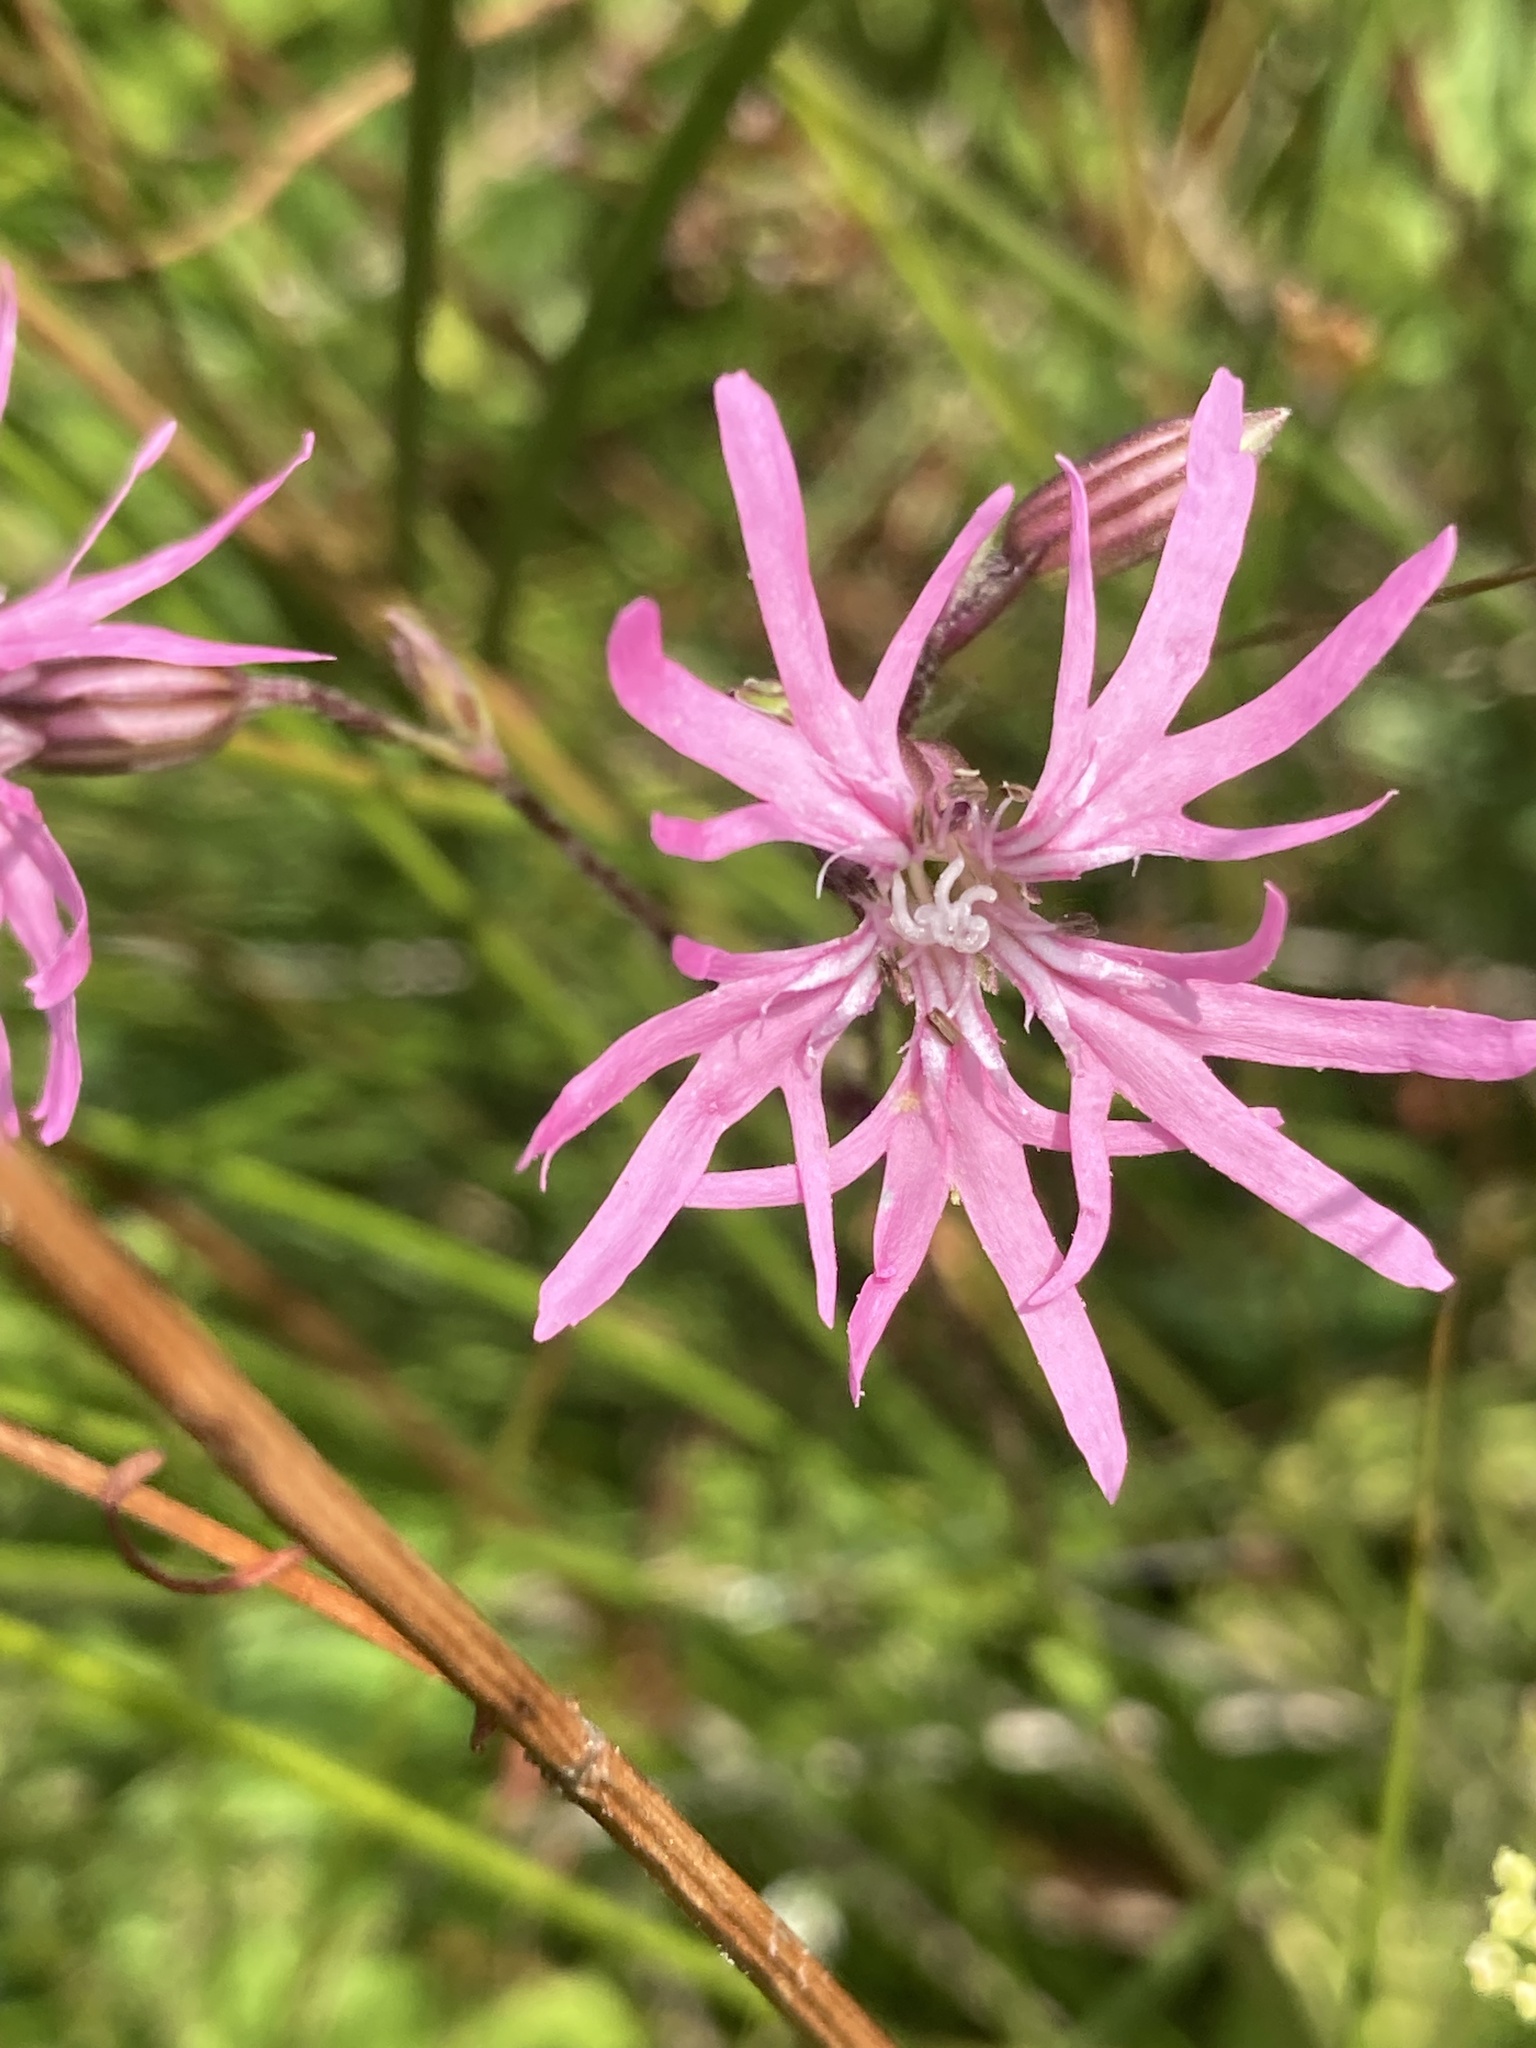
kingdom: Plantae
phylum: Tracheophyta
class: Magnoliopsida
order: Caryophyllales
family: Caryophyllaceae
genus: Silene
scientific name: Silene flos-cuculi
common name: Ragged-robin
